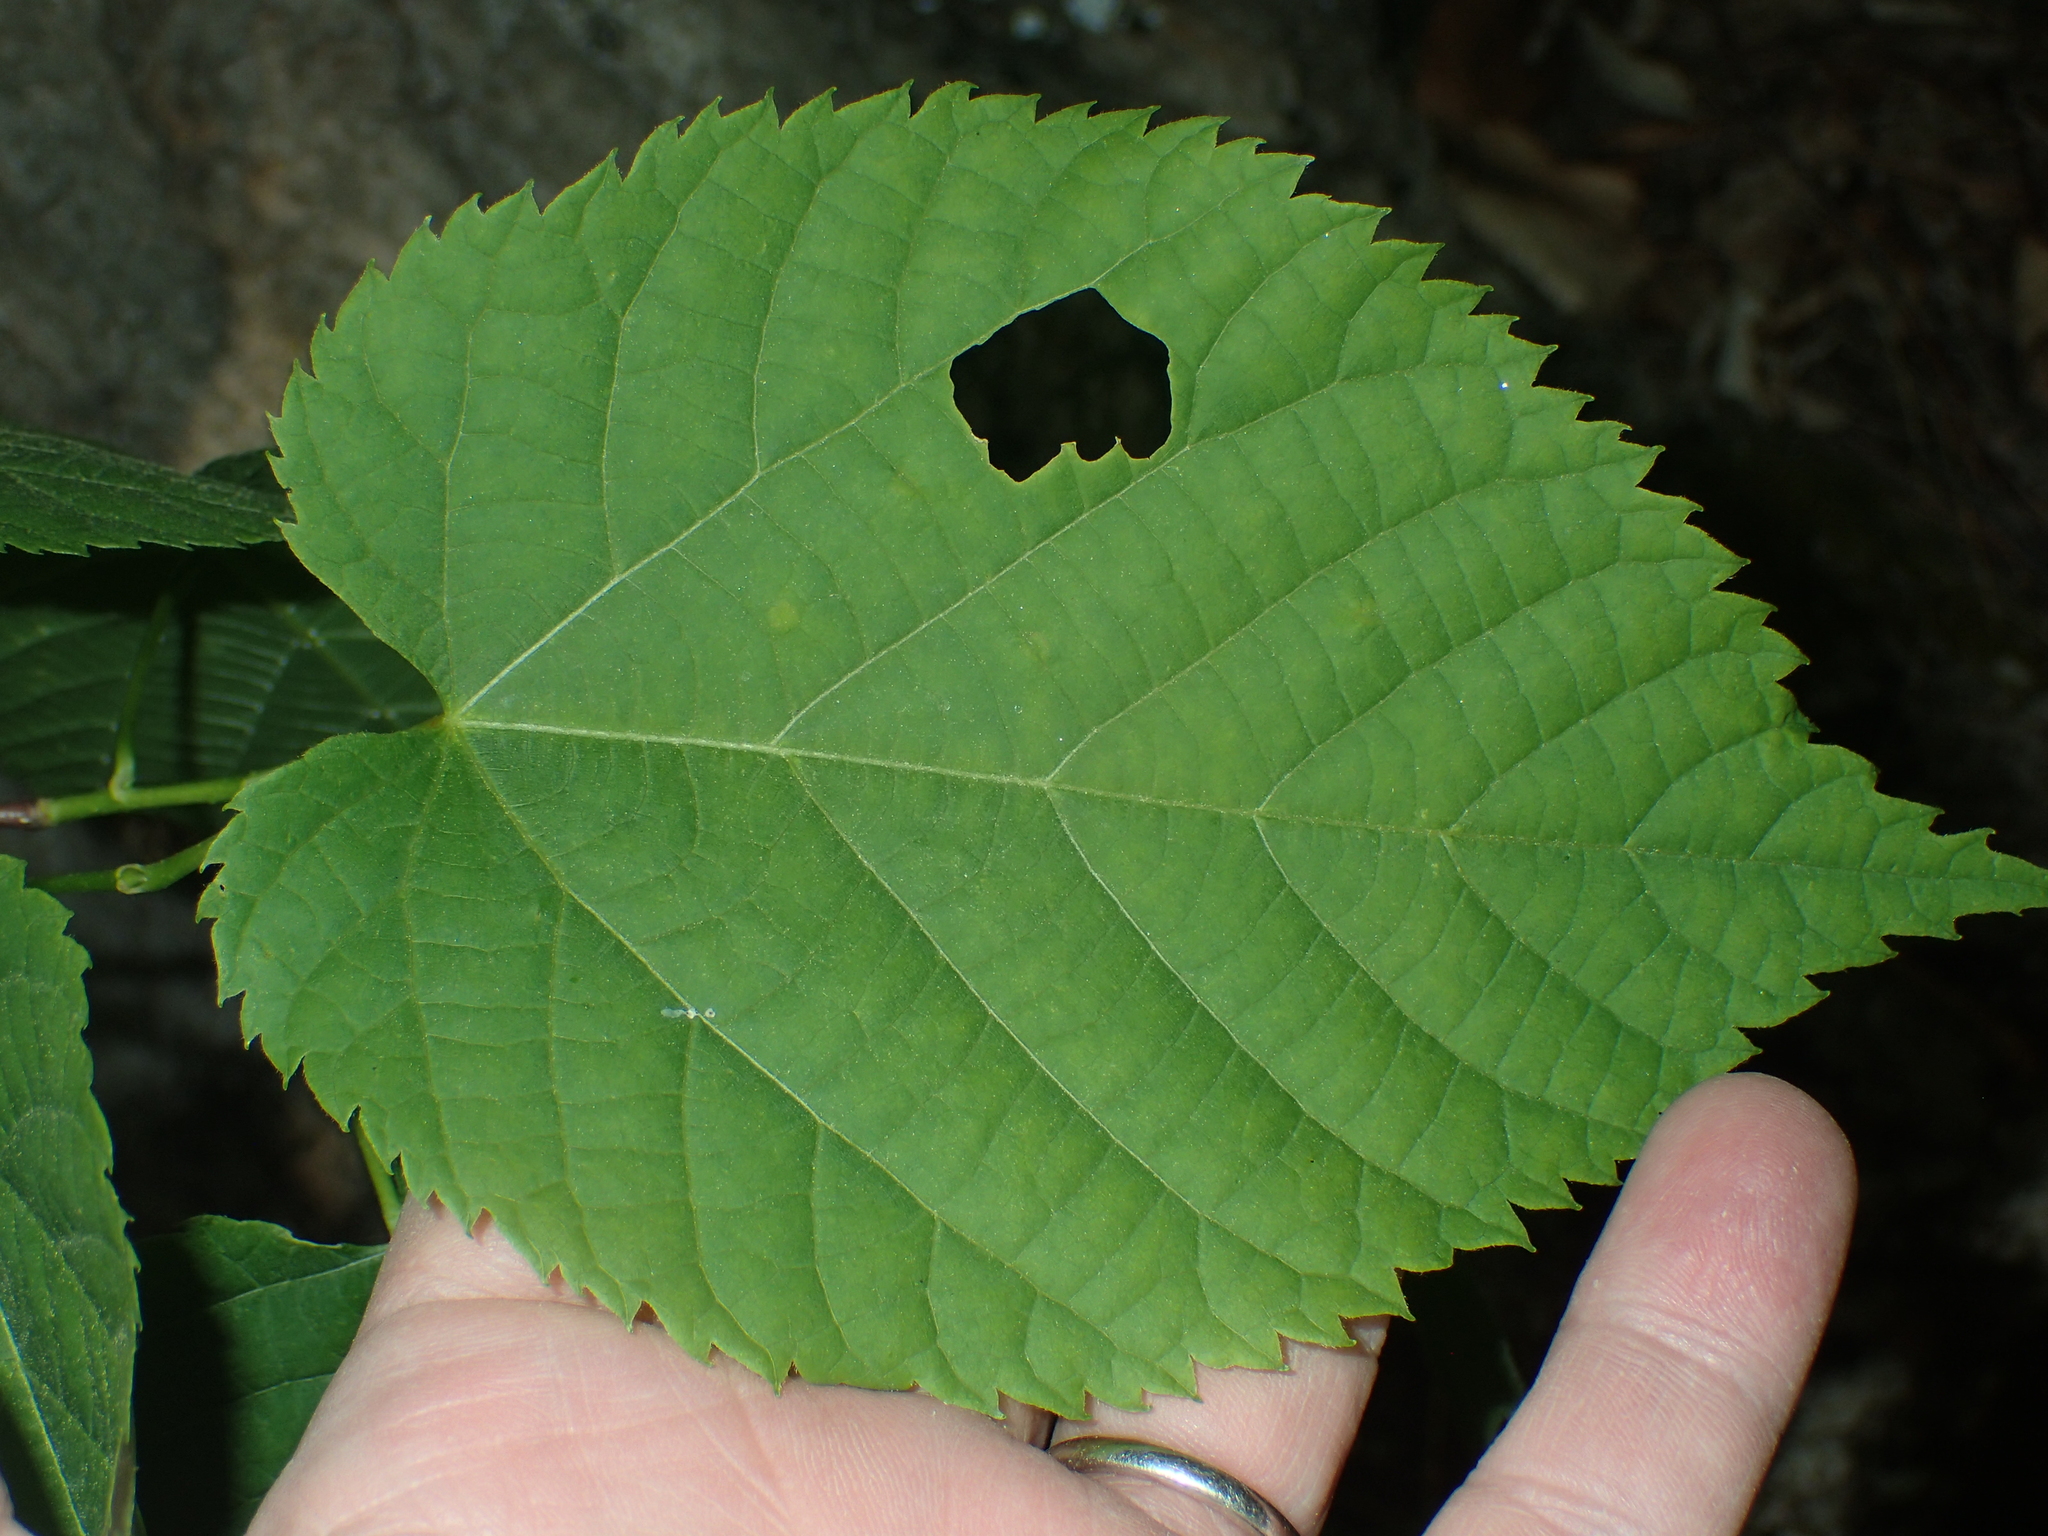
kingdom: Plantae
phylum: Tracheophyta
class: Magnoliopsida
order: Malvales
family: Malvaceae
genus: Tilia
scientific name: Tilia americana
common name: Basswood
